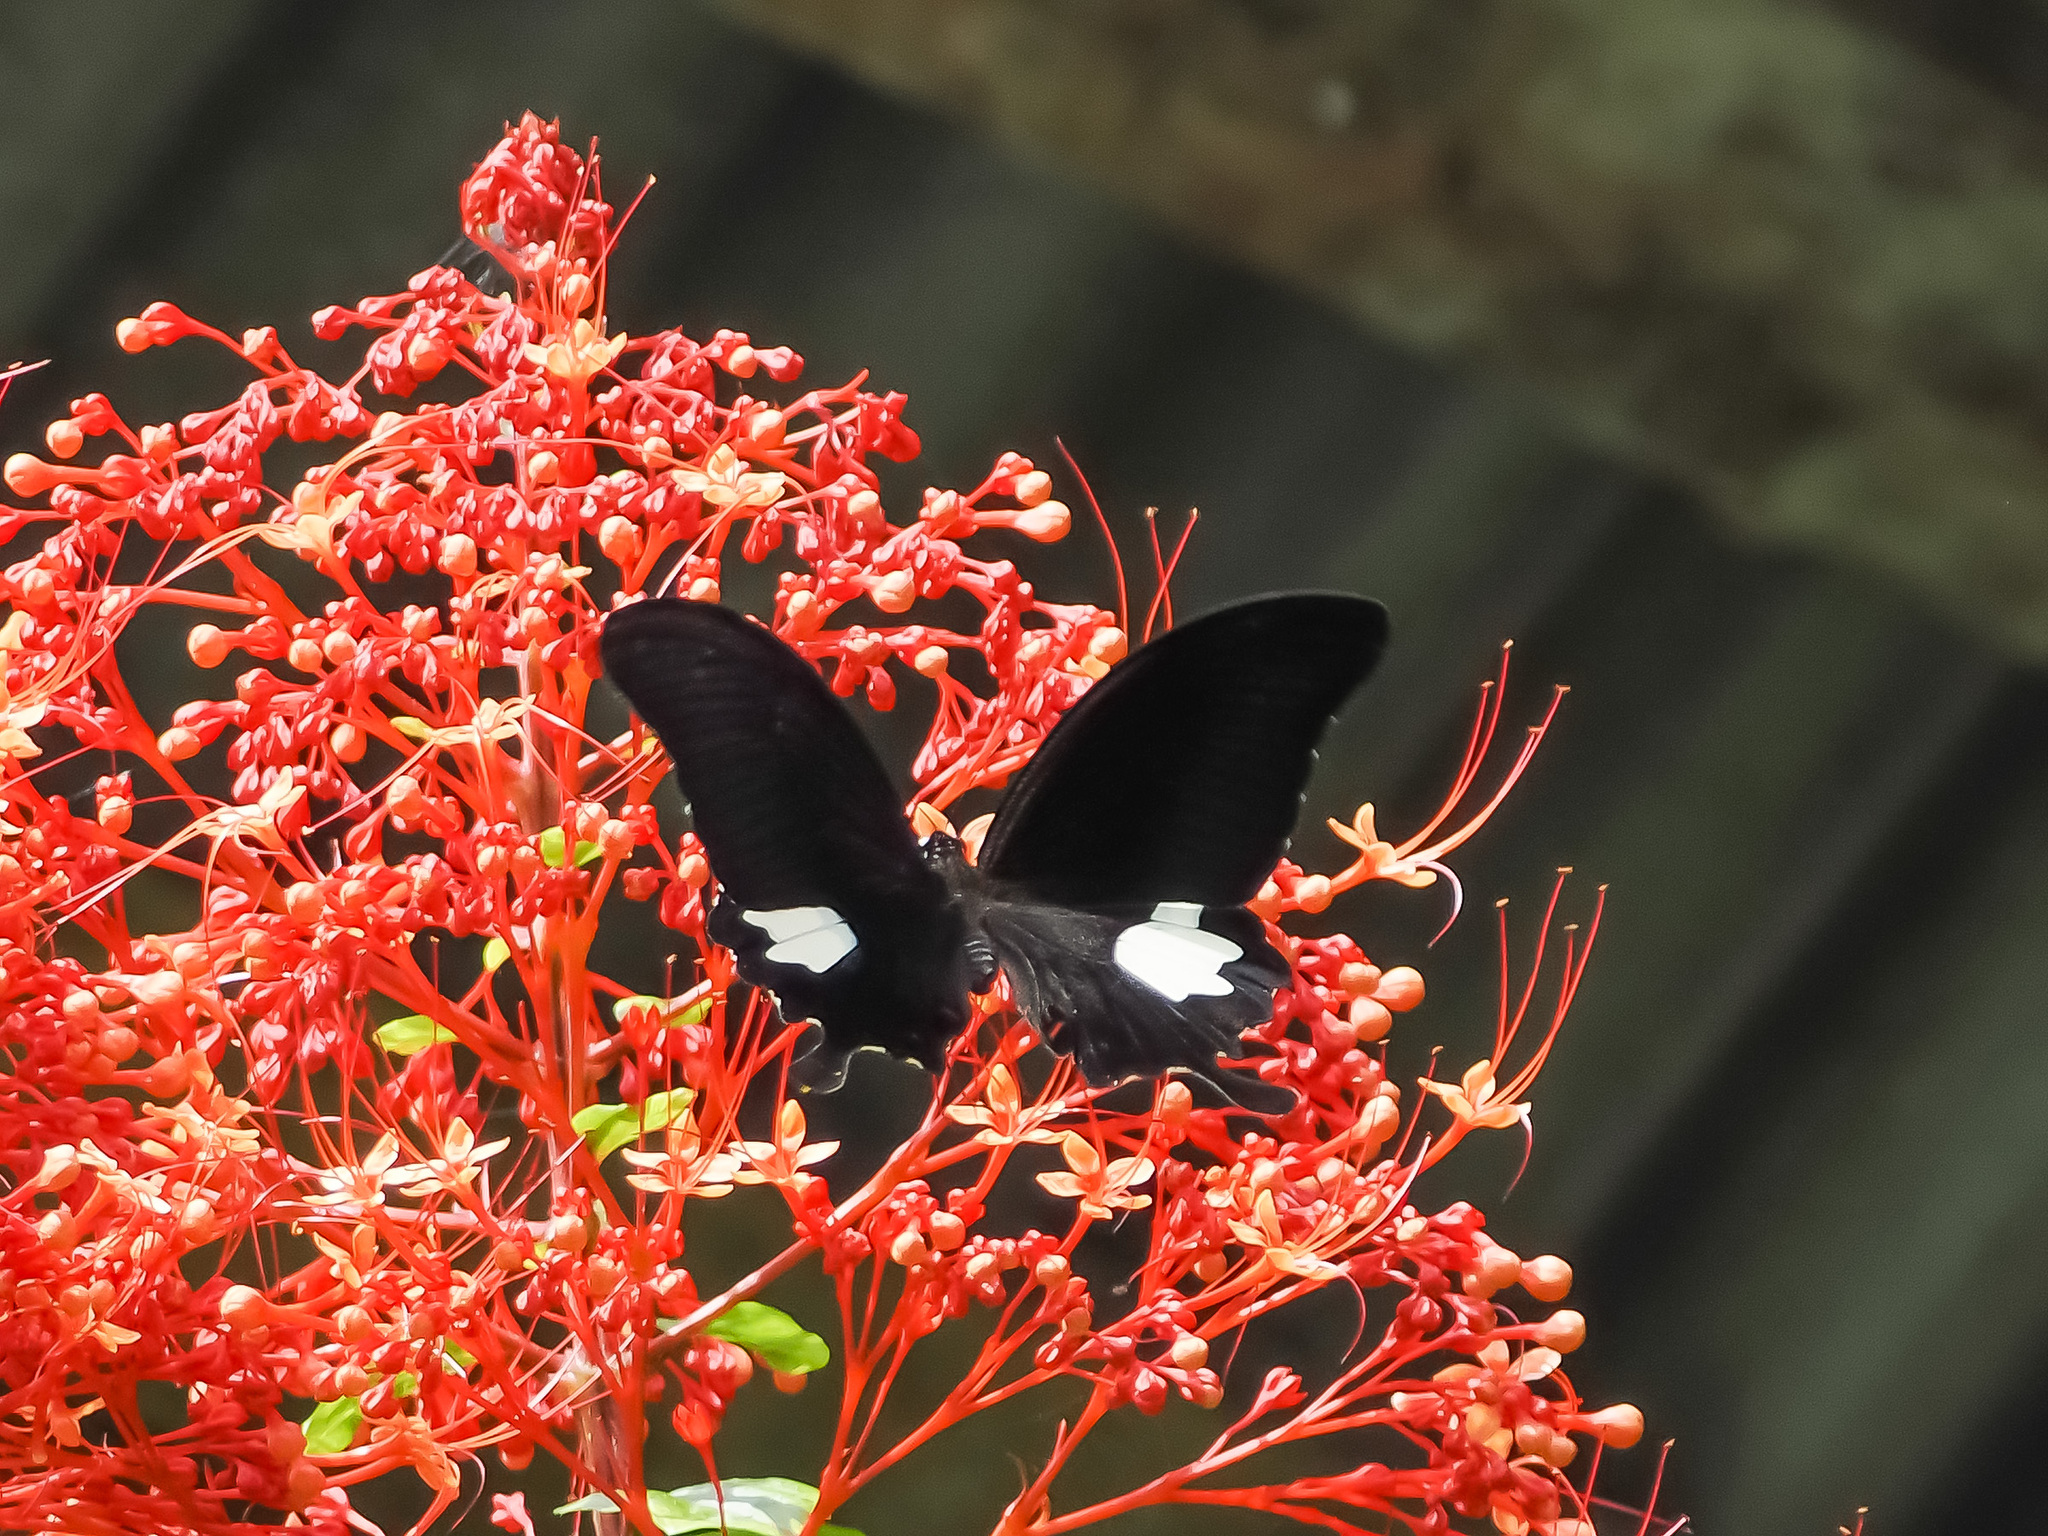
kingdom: Animalia
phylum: Arthropoda
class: Insecta
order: Lepidoptera
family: Papilionidae
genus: Papilio
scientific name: Papilio helenus
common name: Red helen
